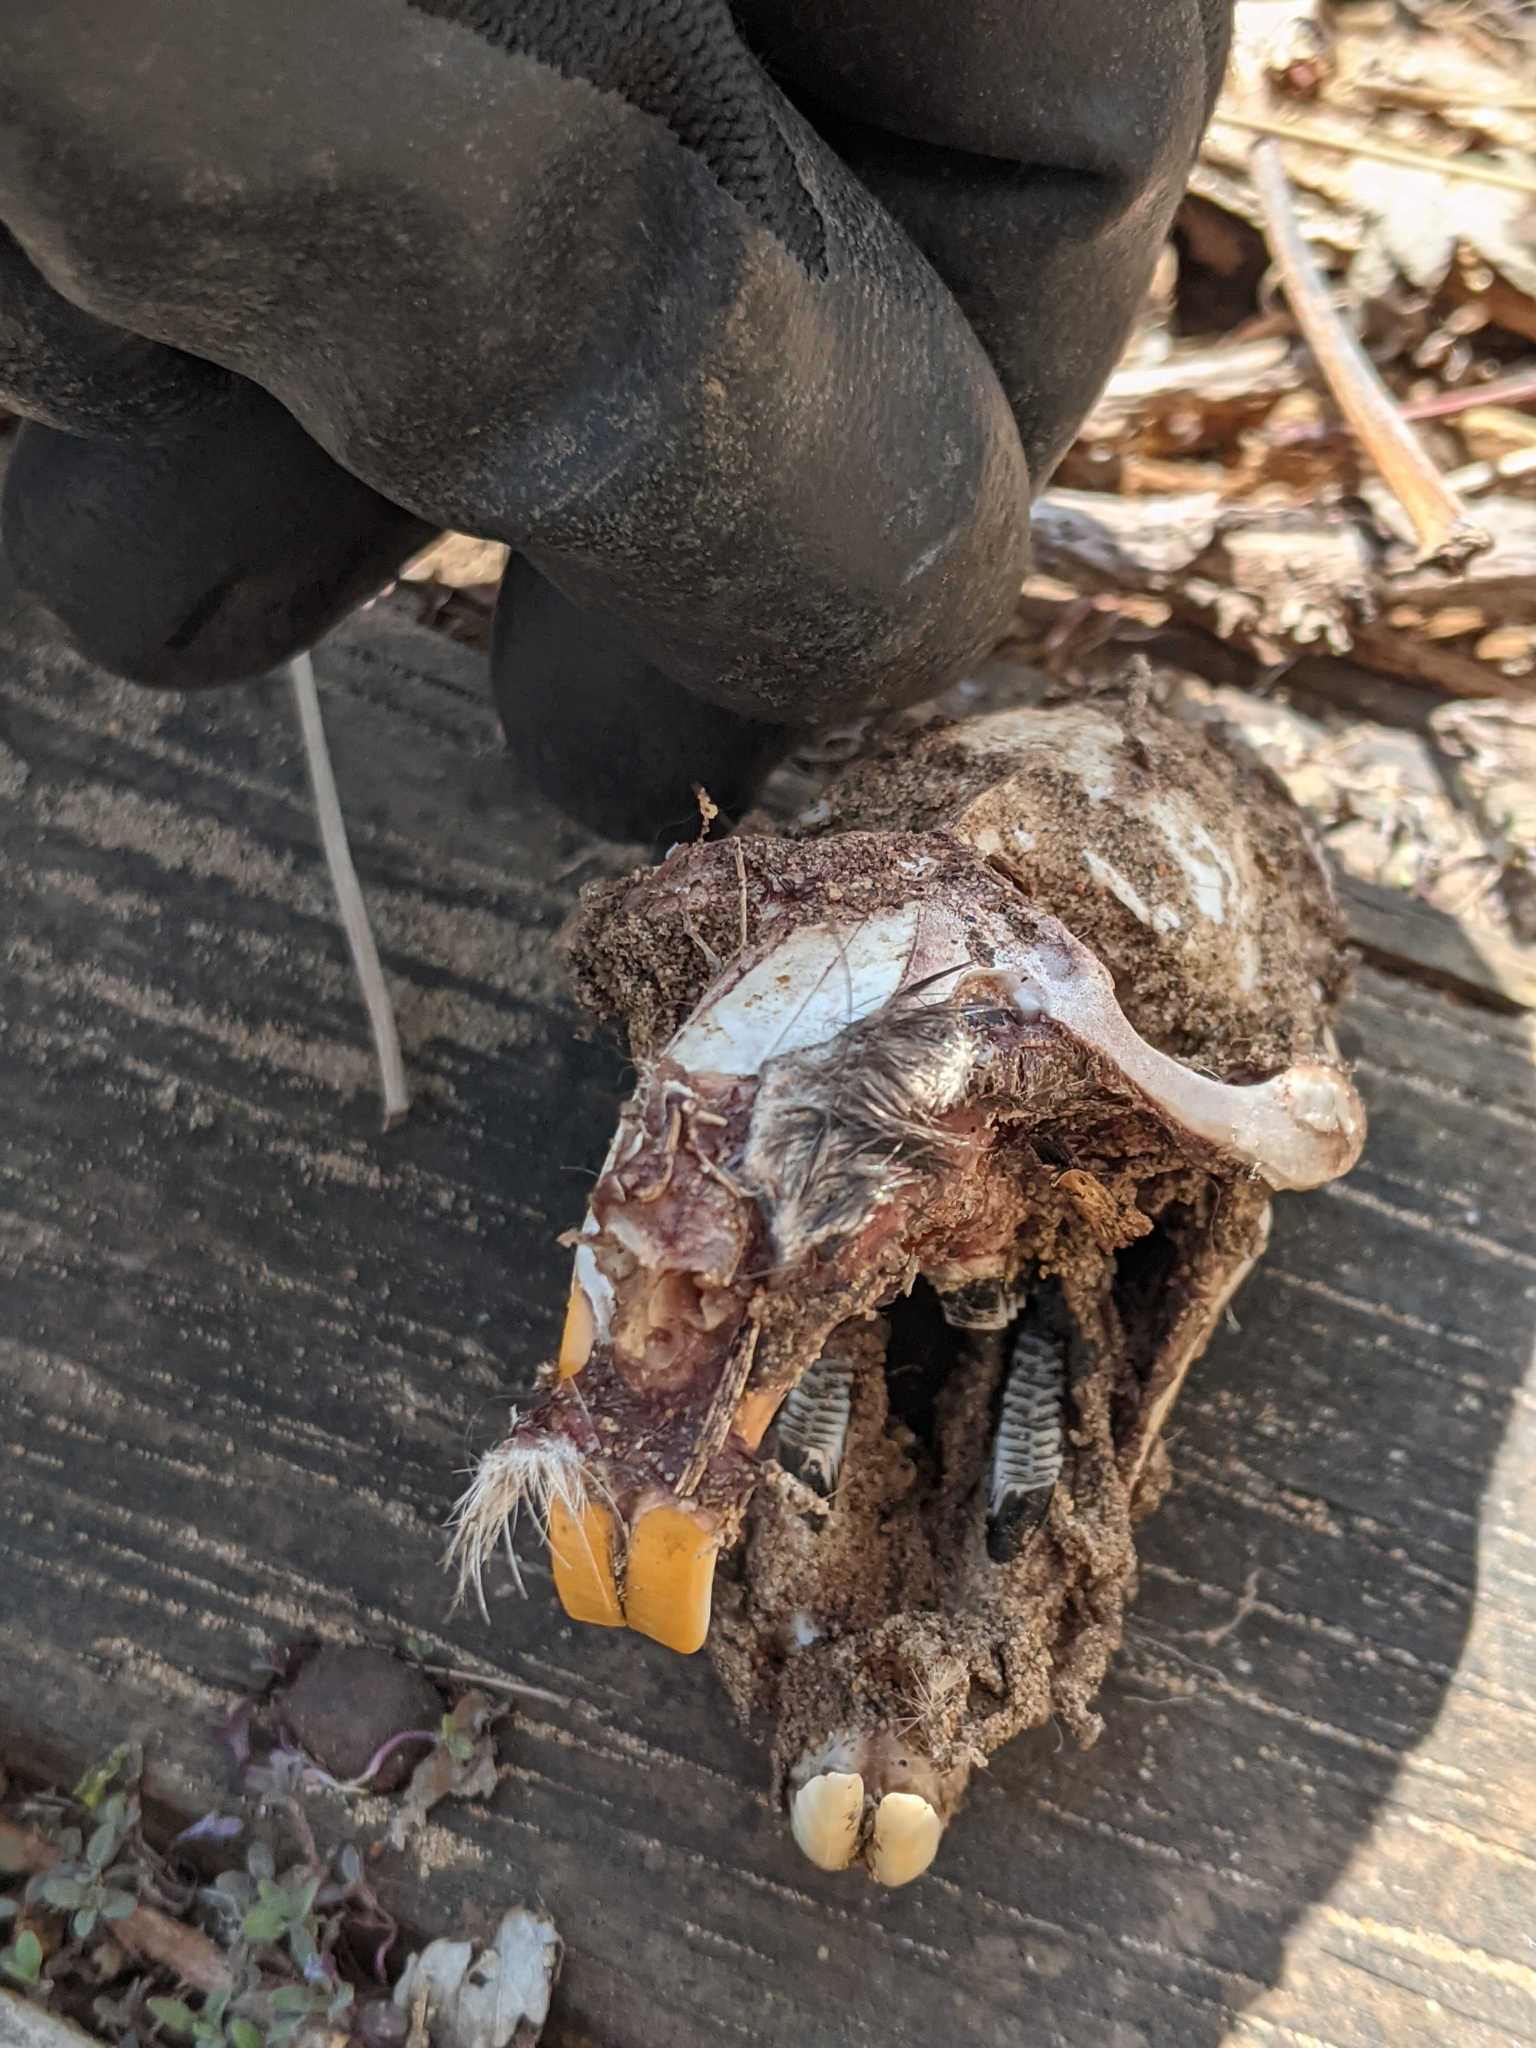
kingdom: Animalia
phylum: Chordata
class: Mammalia
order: Rodentia
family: Cricetidae
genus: Ondatra
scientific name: Ondatra zibethicus
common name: Muskrat
